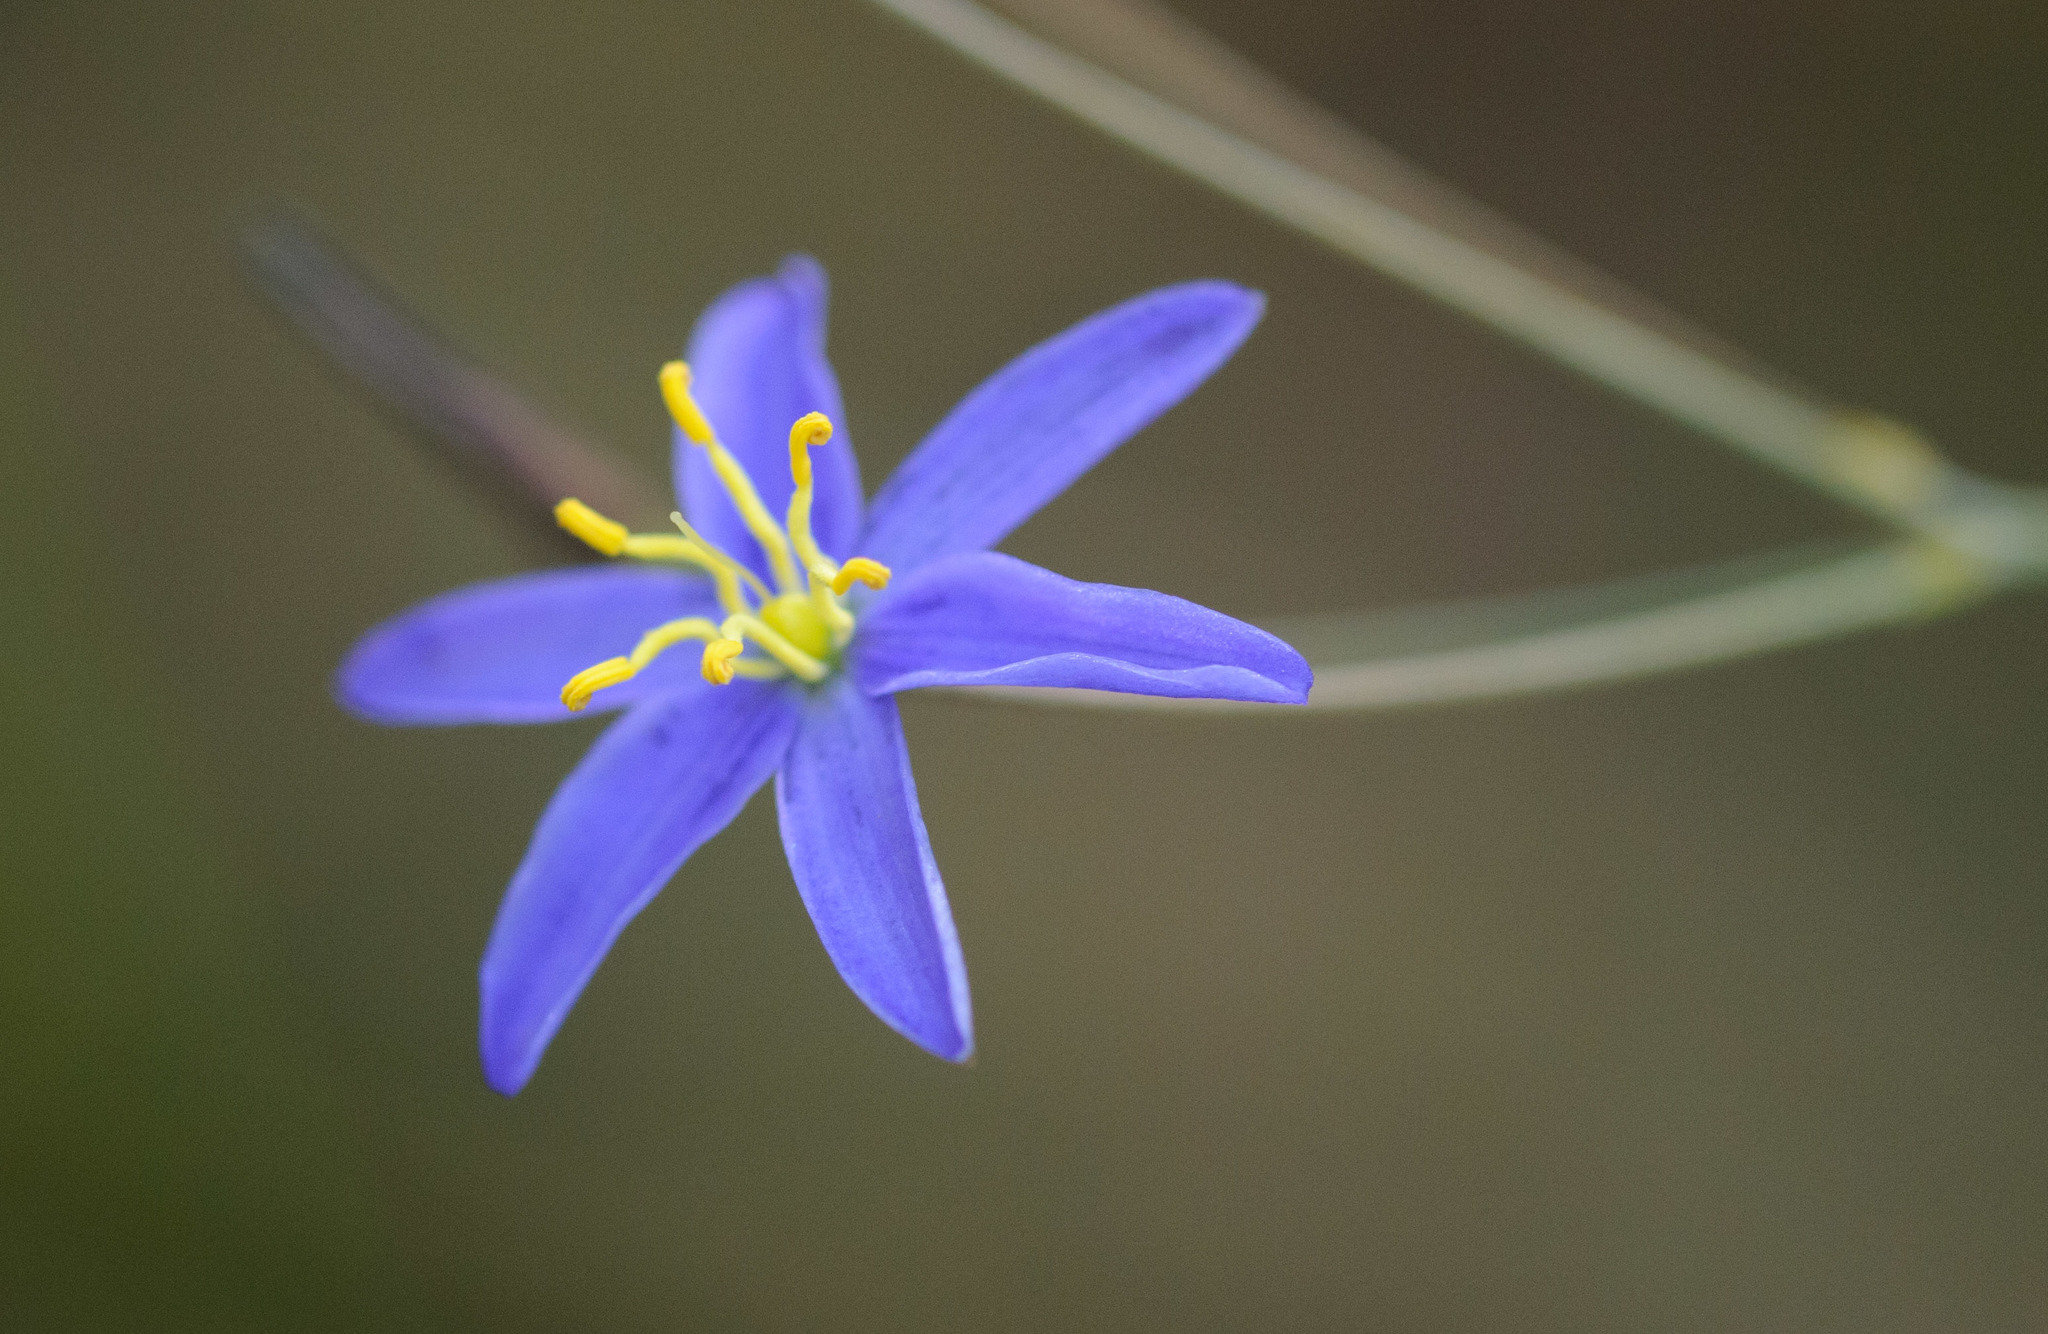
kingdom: Plantae
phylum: Tracheophyta
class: Liliopsida
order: Asparagales
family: Asphodelaceae
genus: Thelionema
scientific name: Thelionema caespitosum
